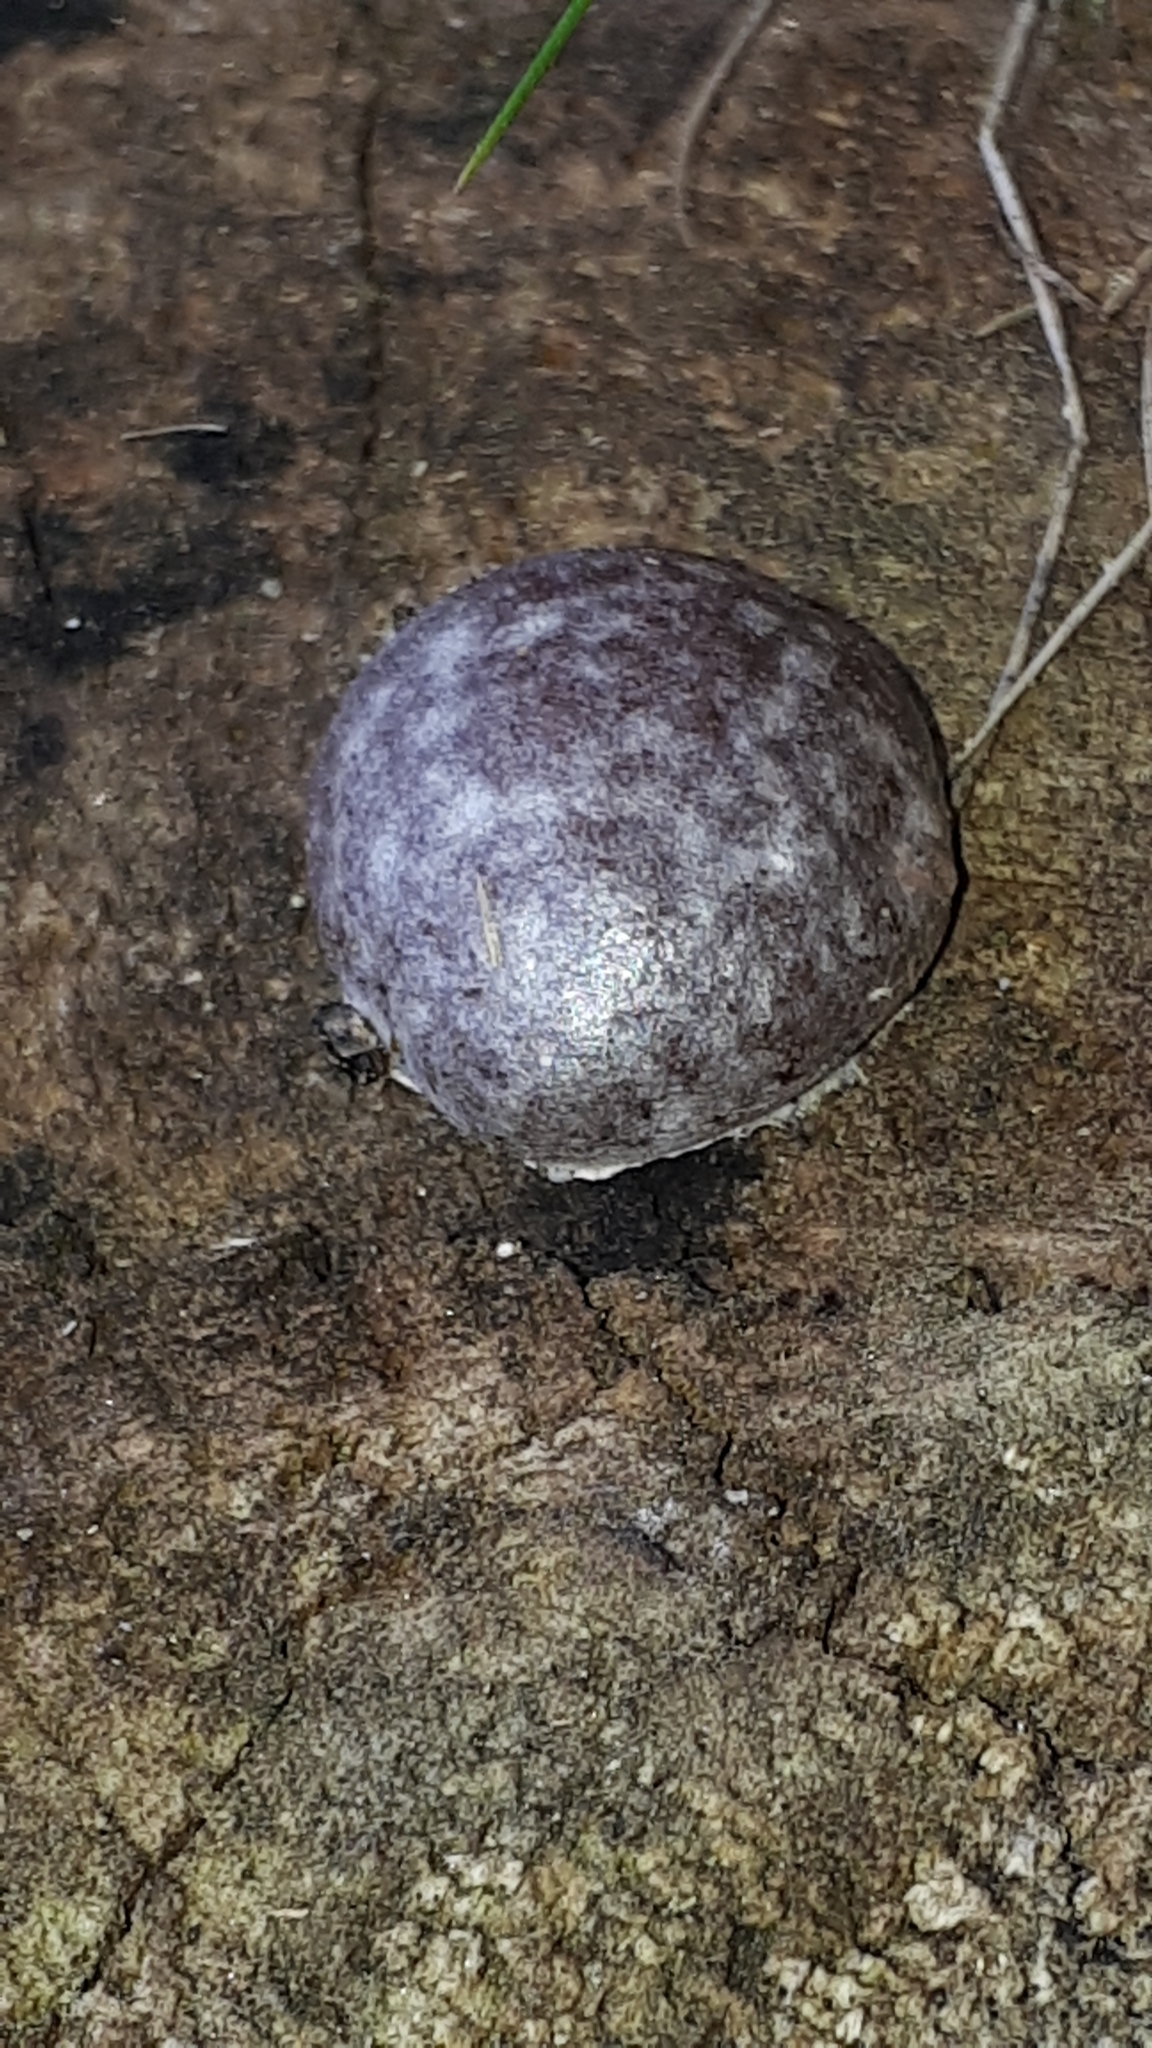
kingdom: Protozoa
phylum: Mycetozoa
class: Myxomycetes
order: Cribrariales
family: Tubiferaceae
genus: Reticularia
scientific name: Reticularia lycoperdon
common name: False puffball
